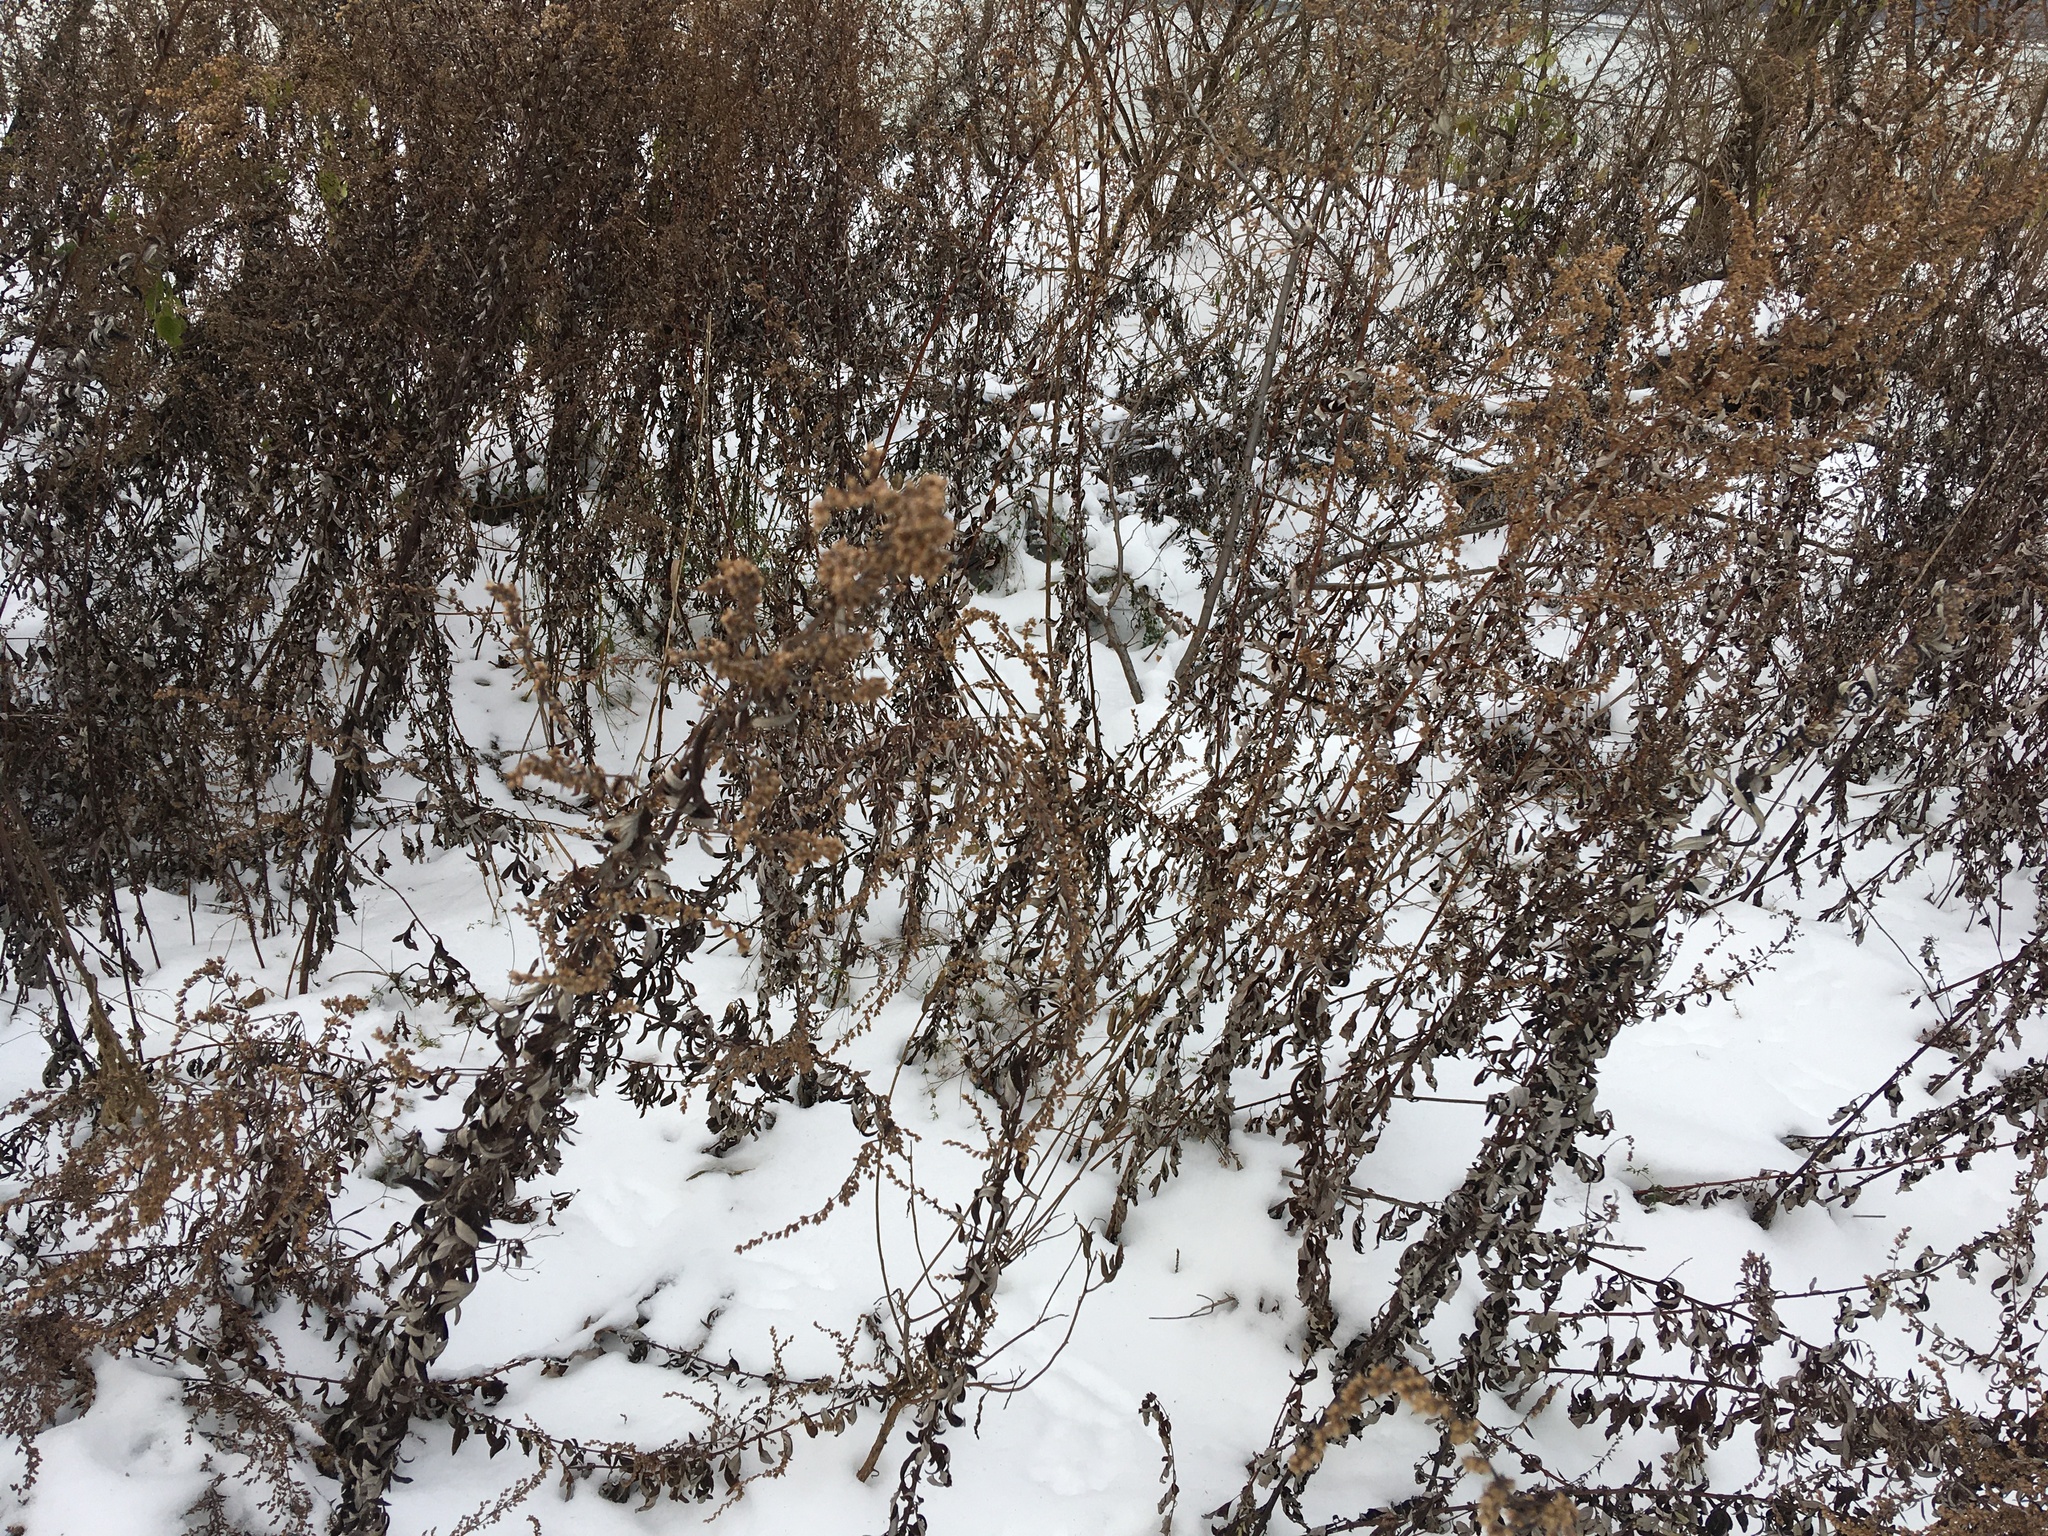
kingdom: Plantae
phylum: Tracheophyta
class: Magnoliopsida
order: Asterales
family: Asteraceae
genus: Artemisia
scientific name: Artemisia vulgaris
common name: Mugwort
